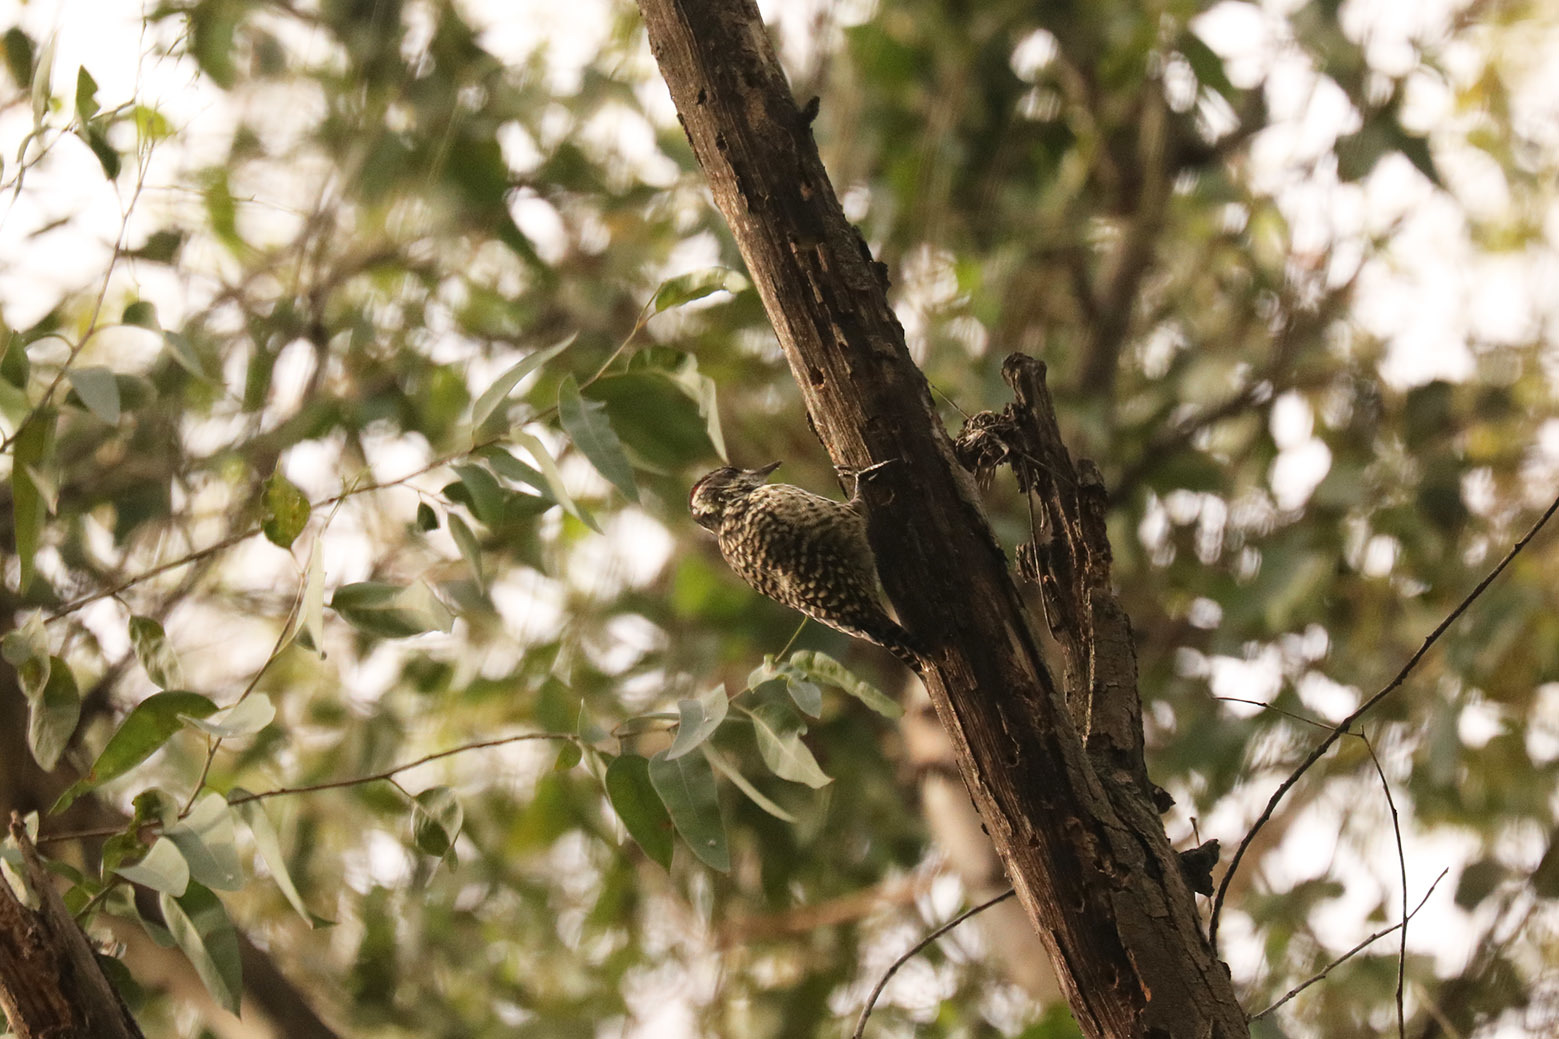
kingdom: Animalia
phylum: Chordata
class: Aves
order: Piciformes
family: Picidae
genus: Veniliornis
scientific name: Veniliornis mixtus
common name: Checkered woodpecker
